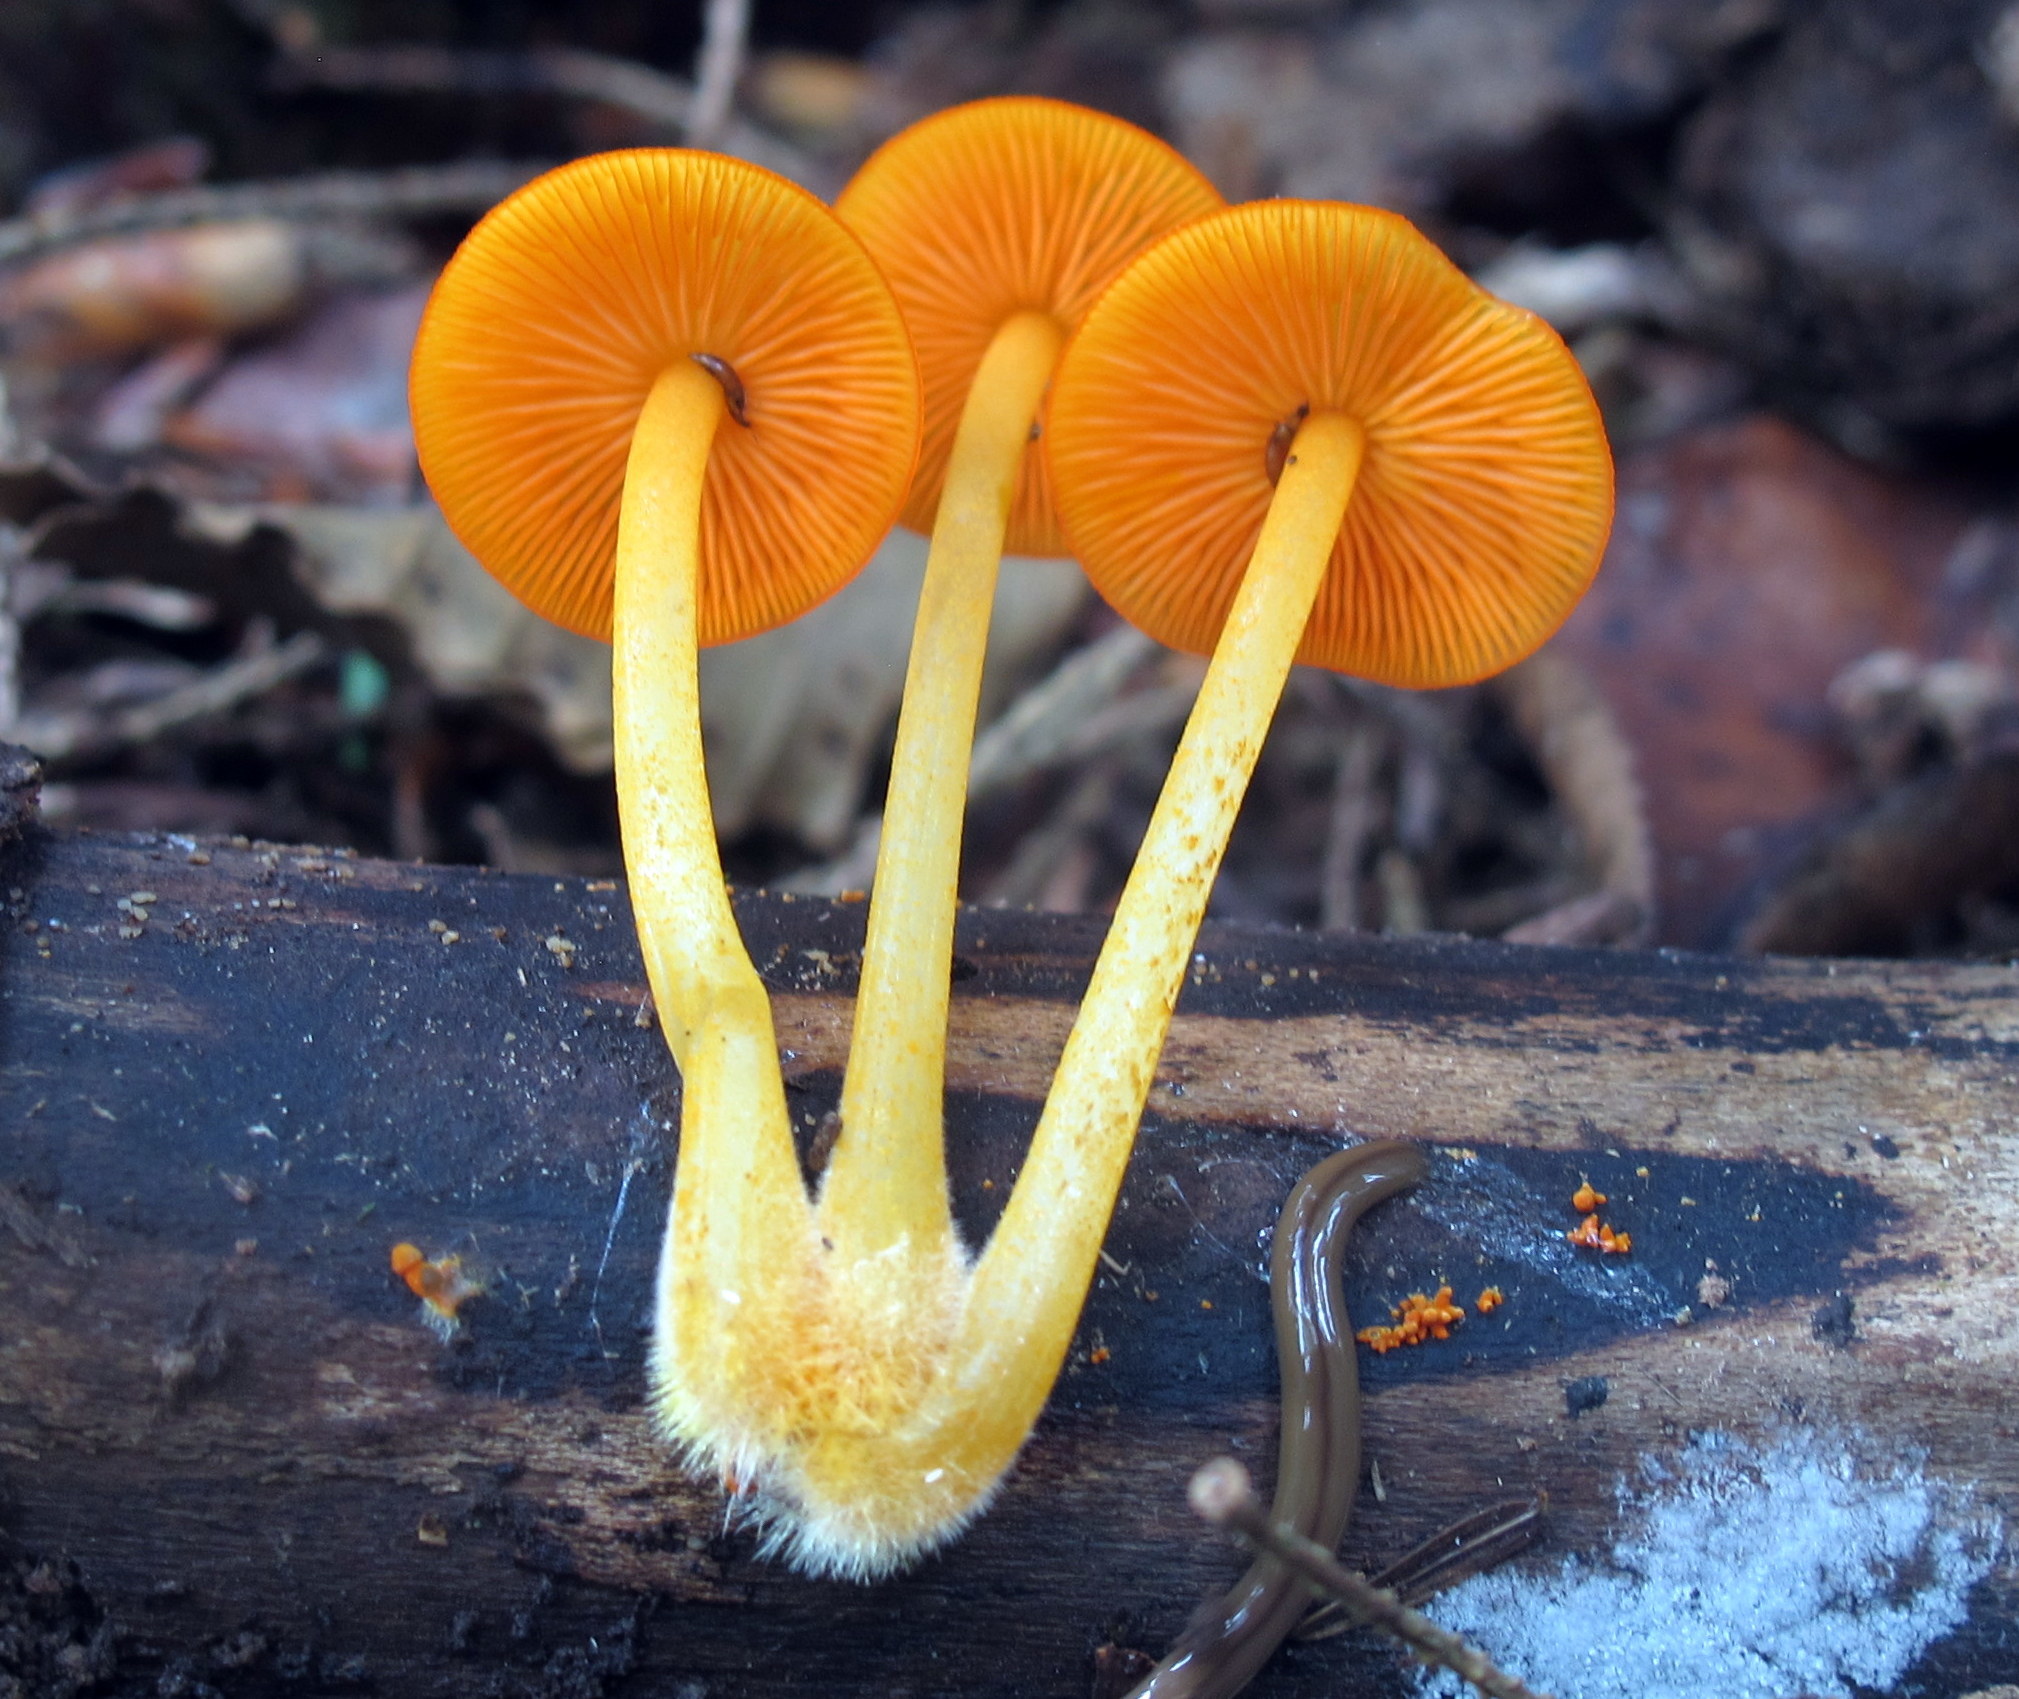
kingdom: Fungi
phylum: Basidiomycota
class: Agaricomycetes
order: Agaricales
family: Mycenaceae
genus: Mycena
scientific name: Mycena leaiana
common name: Orange mycena
